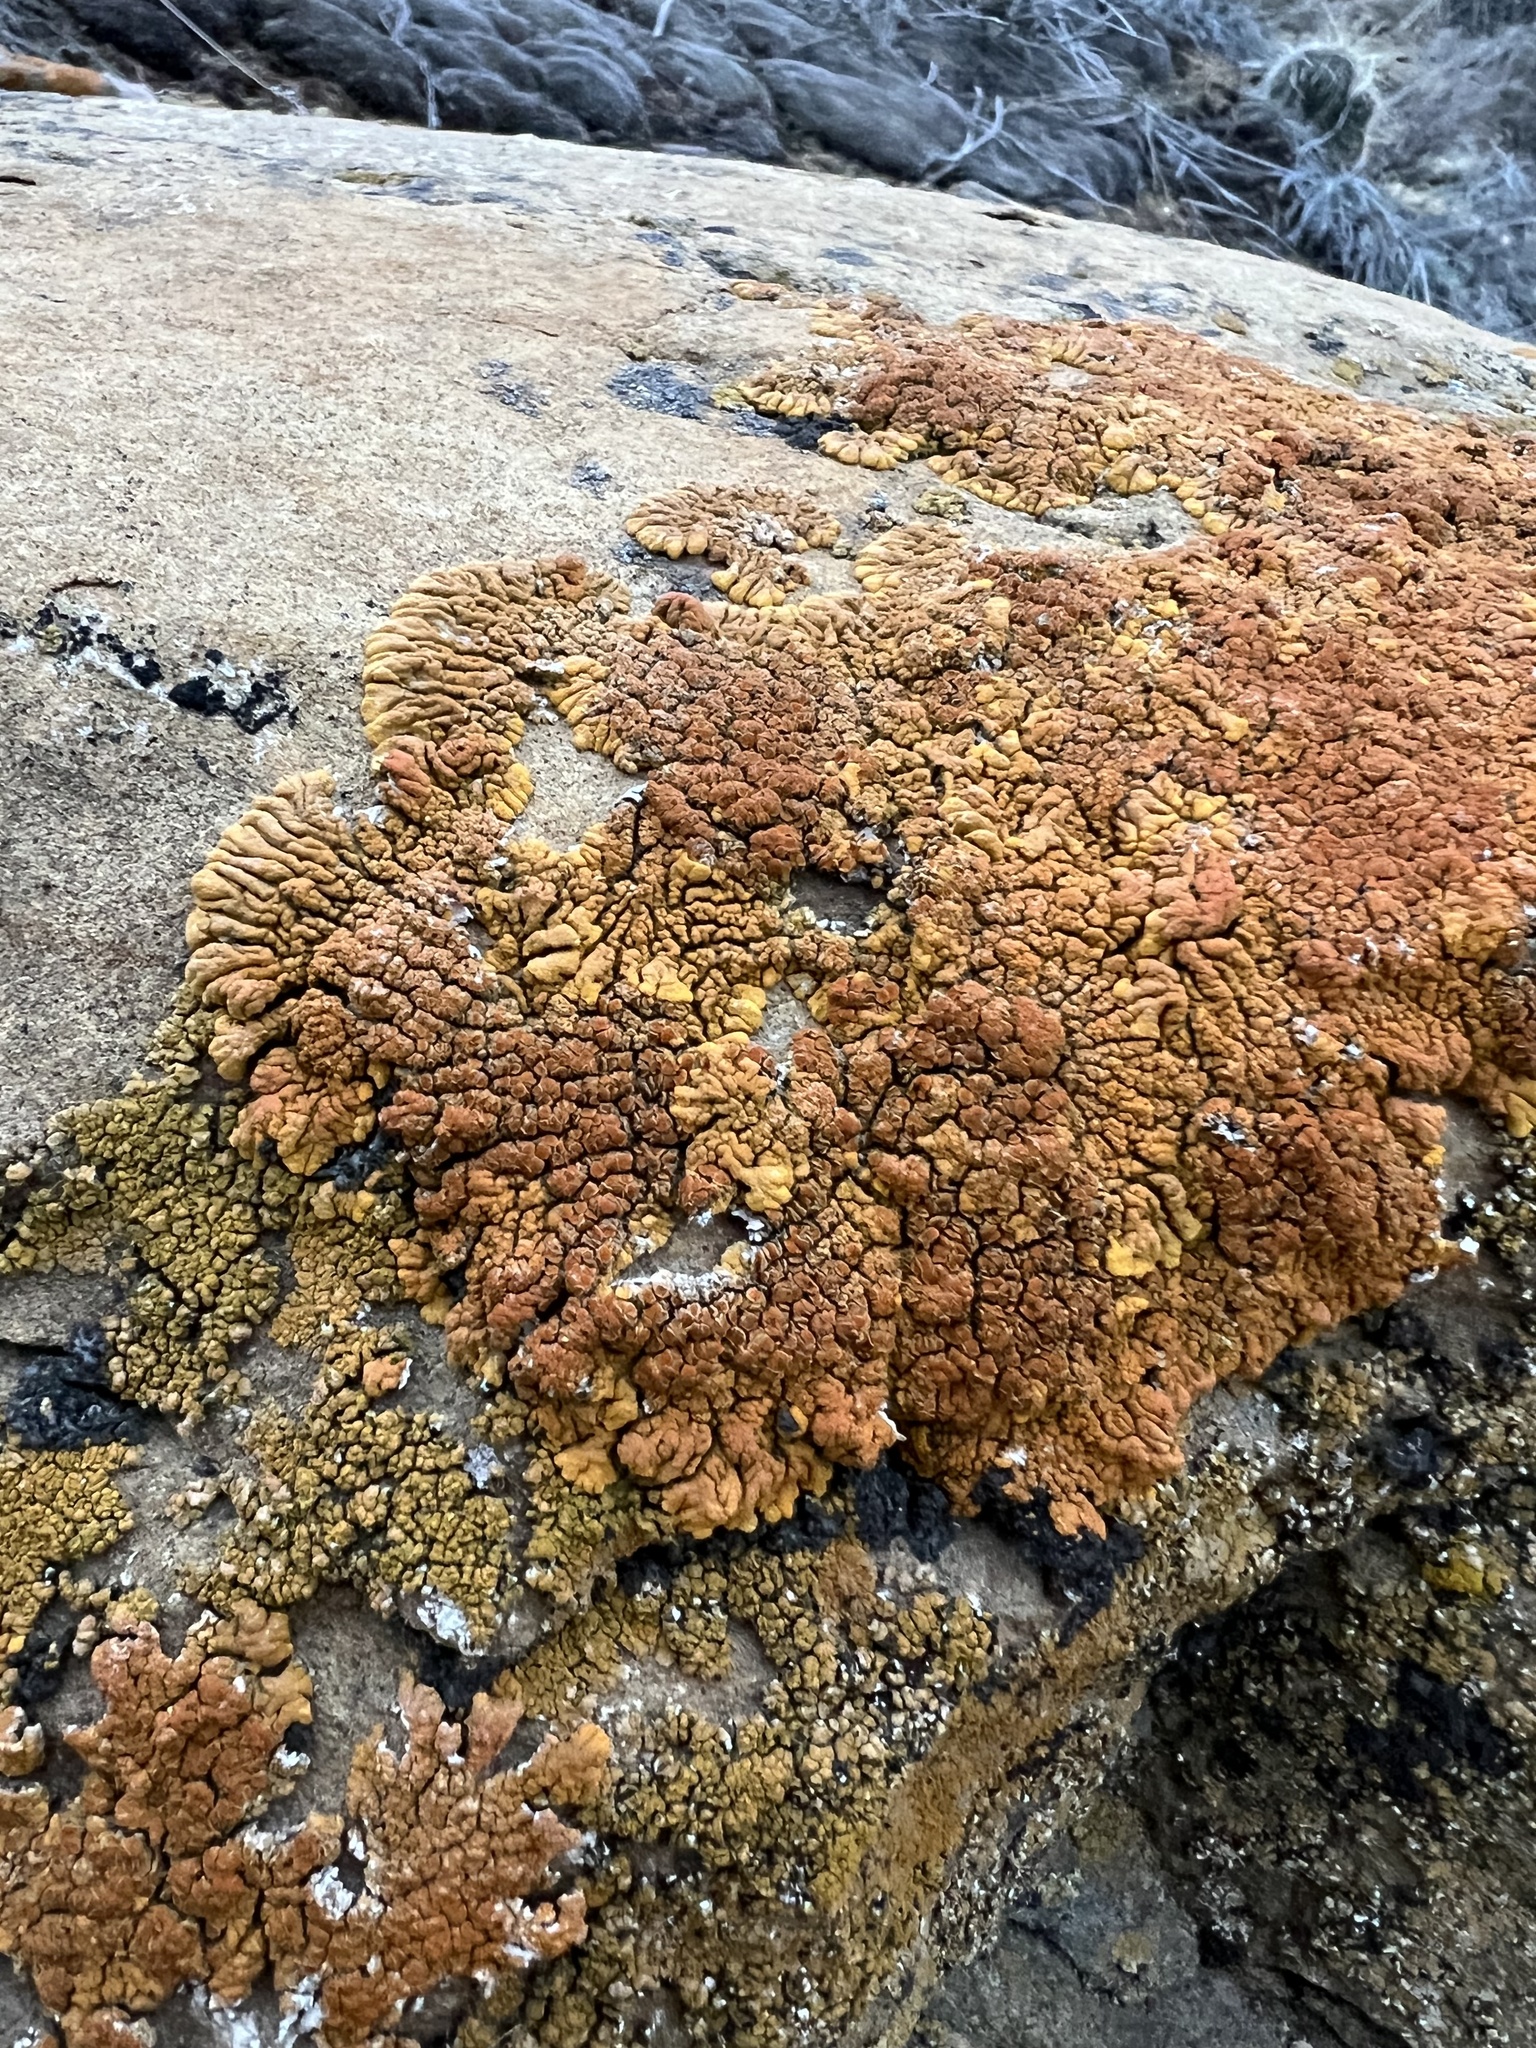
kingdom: Fungi
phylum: Ascomycota
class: Lecanoromycetes
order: Teloschistales
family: Teloschistaceae
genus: Golubkovia
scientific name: Golubkovia trachyphylla
